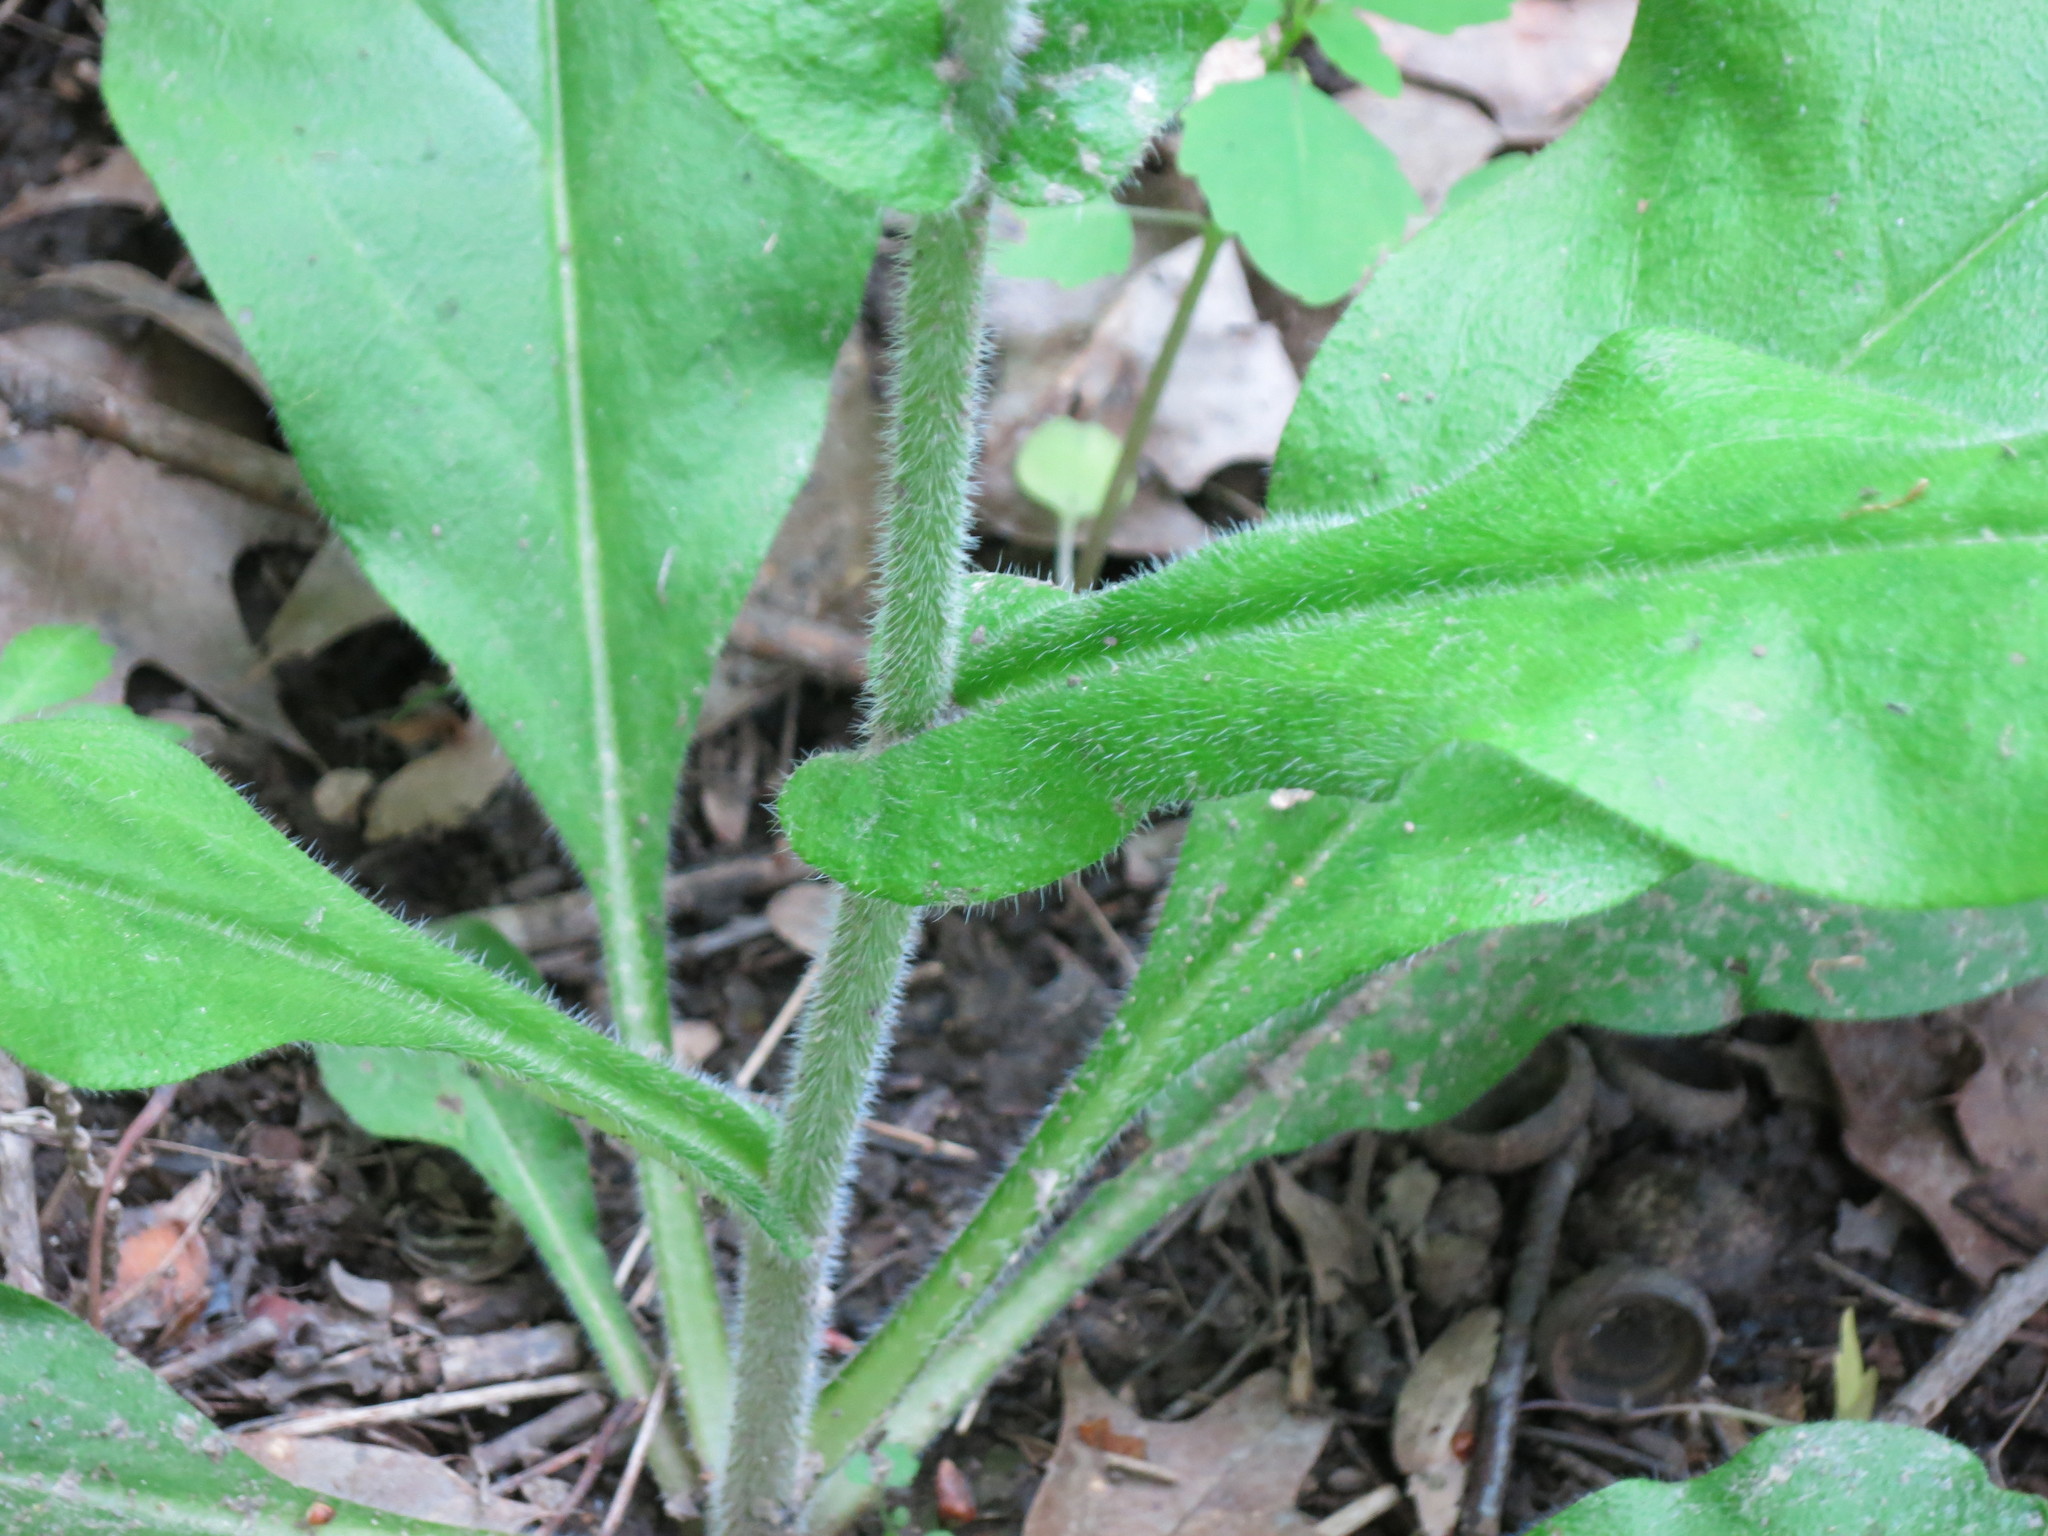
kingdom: Plantae
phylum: Tracheophyta
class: Magnoliopsida
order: Boraginales
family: Boraginaceae
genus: Andersonglossum
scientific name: Andersonglossum virginianum
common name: Wild comfrey
